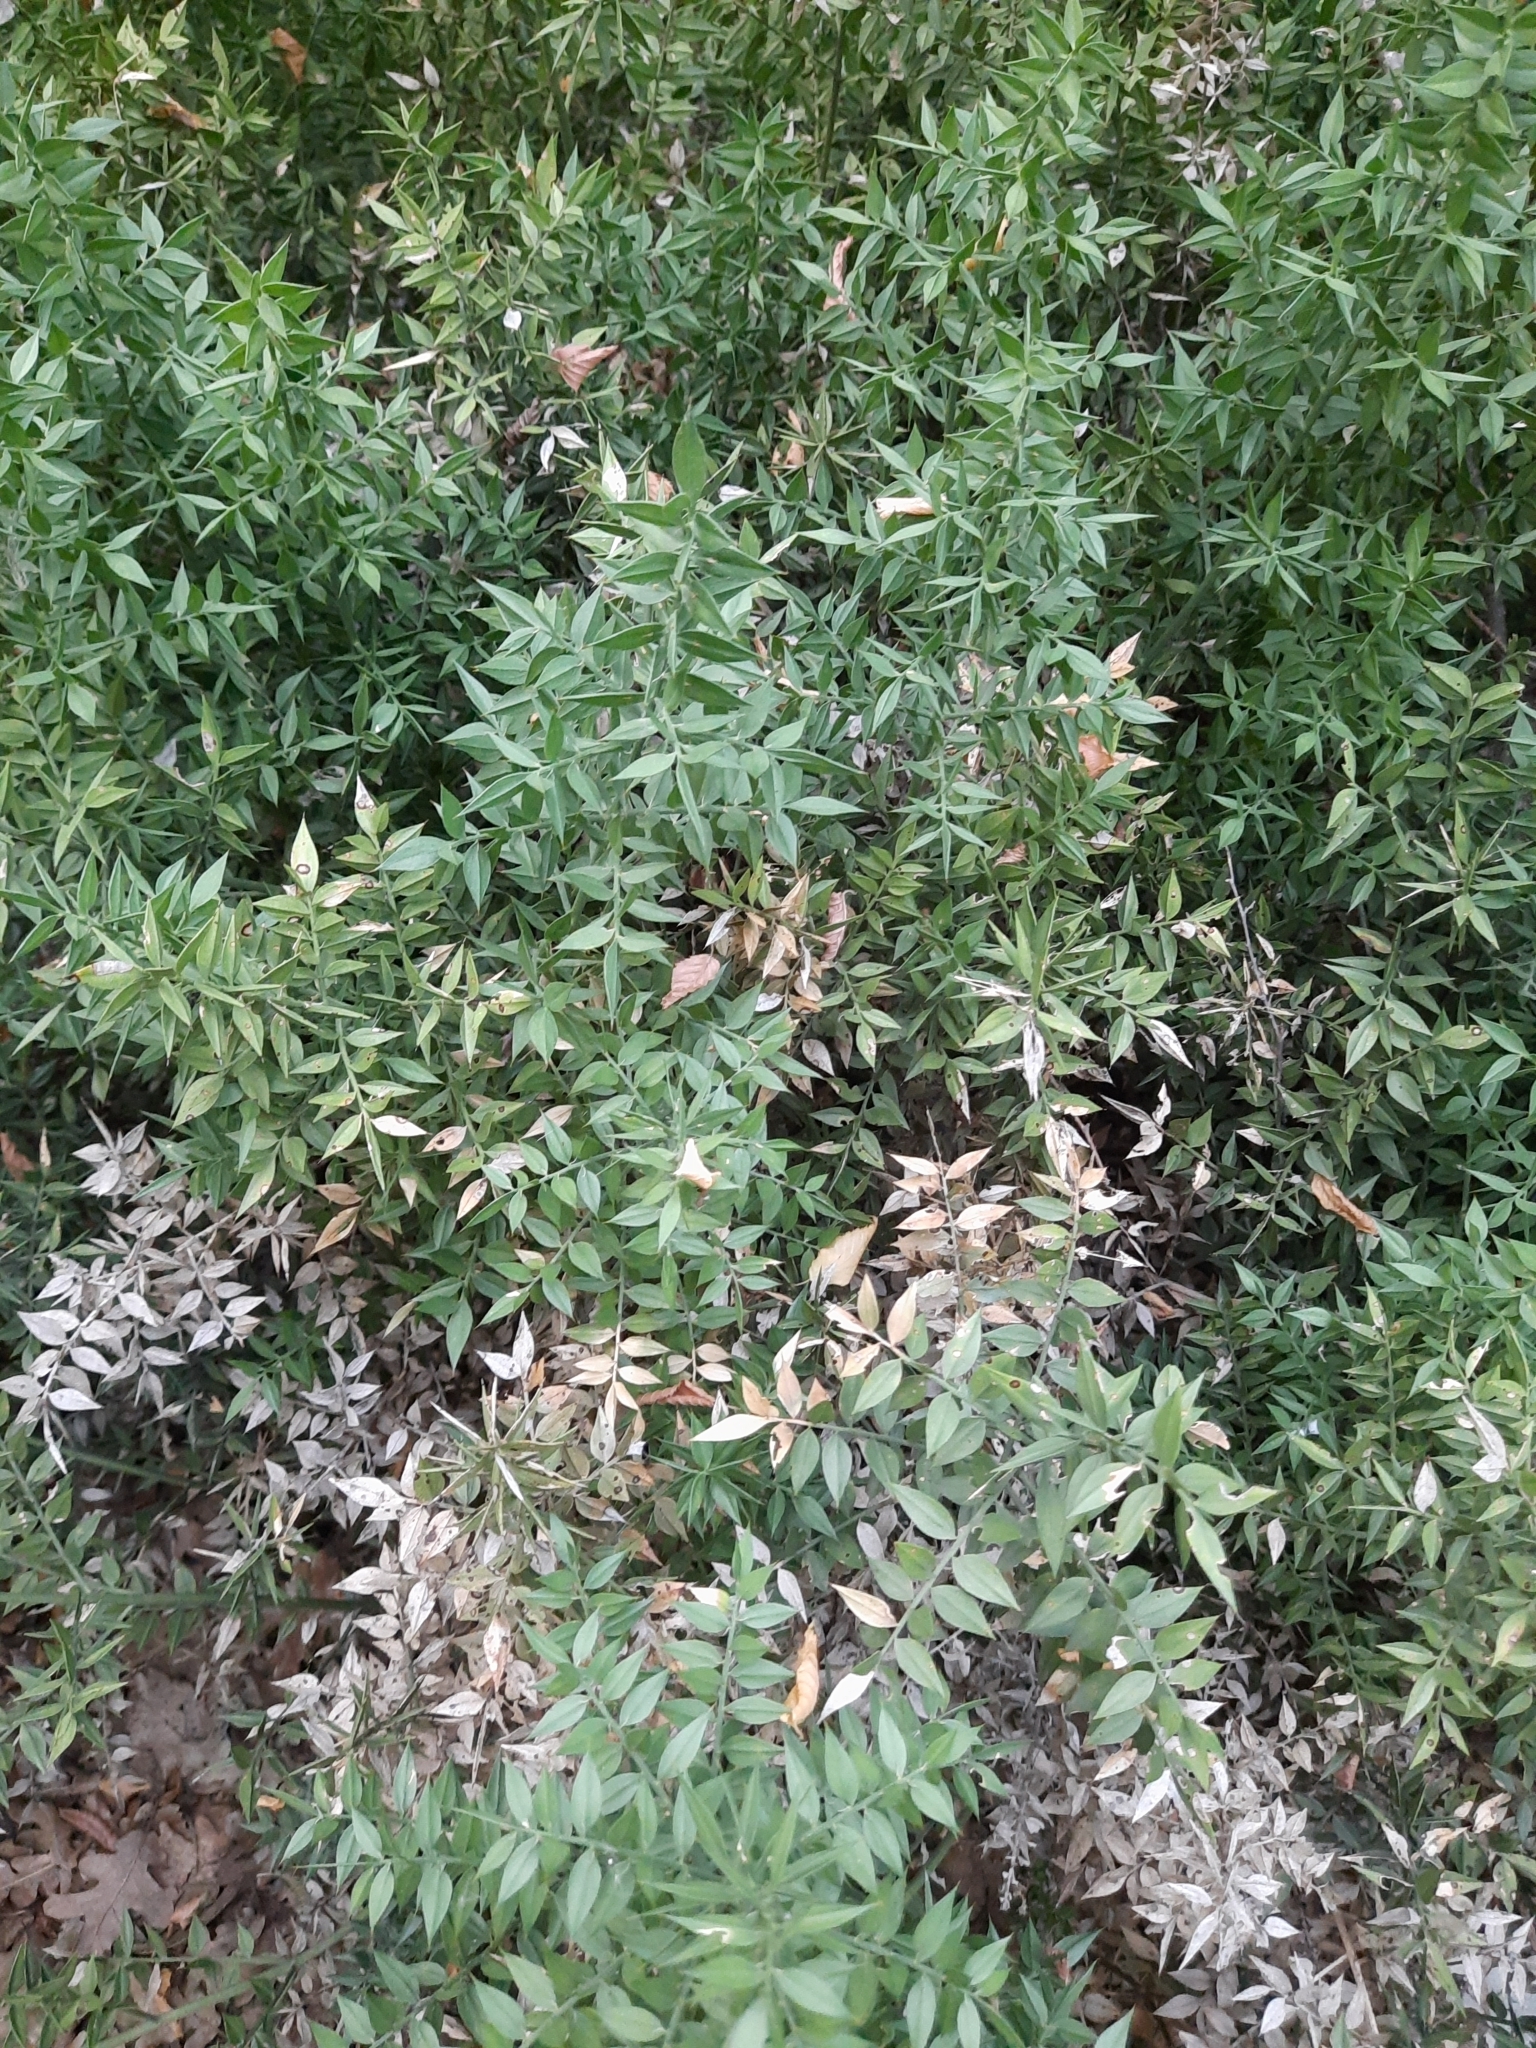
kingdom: Plantae
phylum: Tracheophyta
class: Liliopsida
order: Asparagales
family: Asparagaceae
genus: Ruscus
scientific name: Ruscus aculeatus
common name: Butcher's-broom
